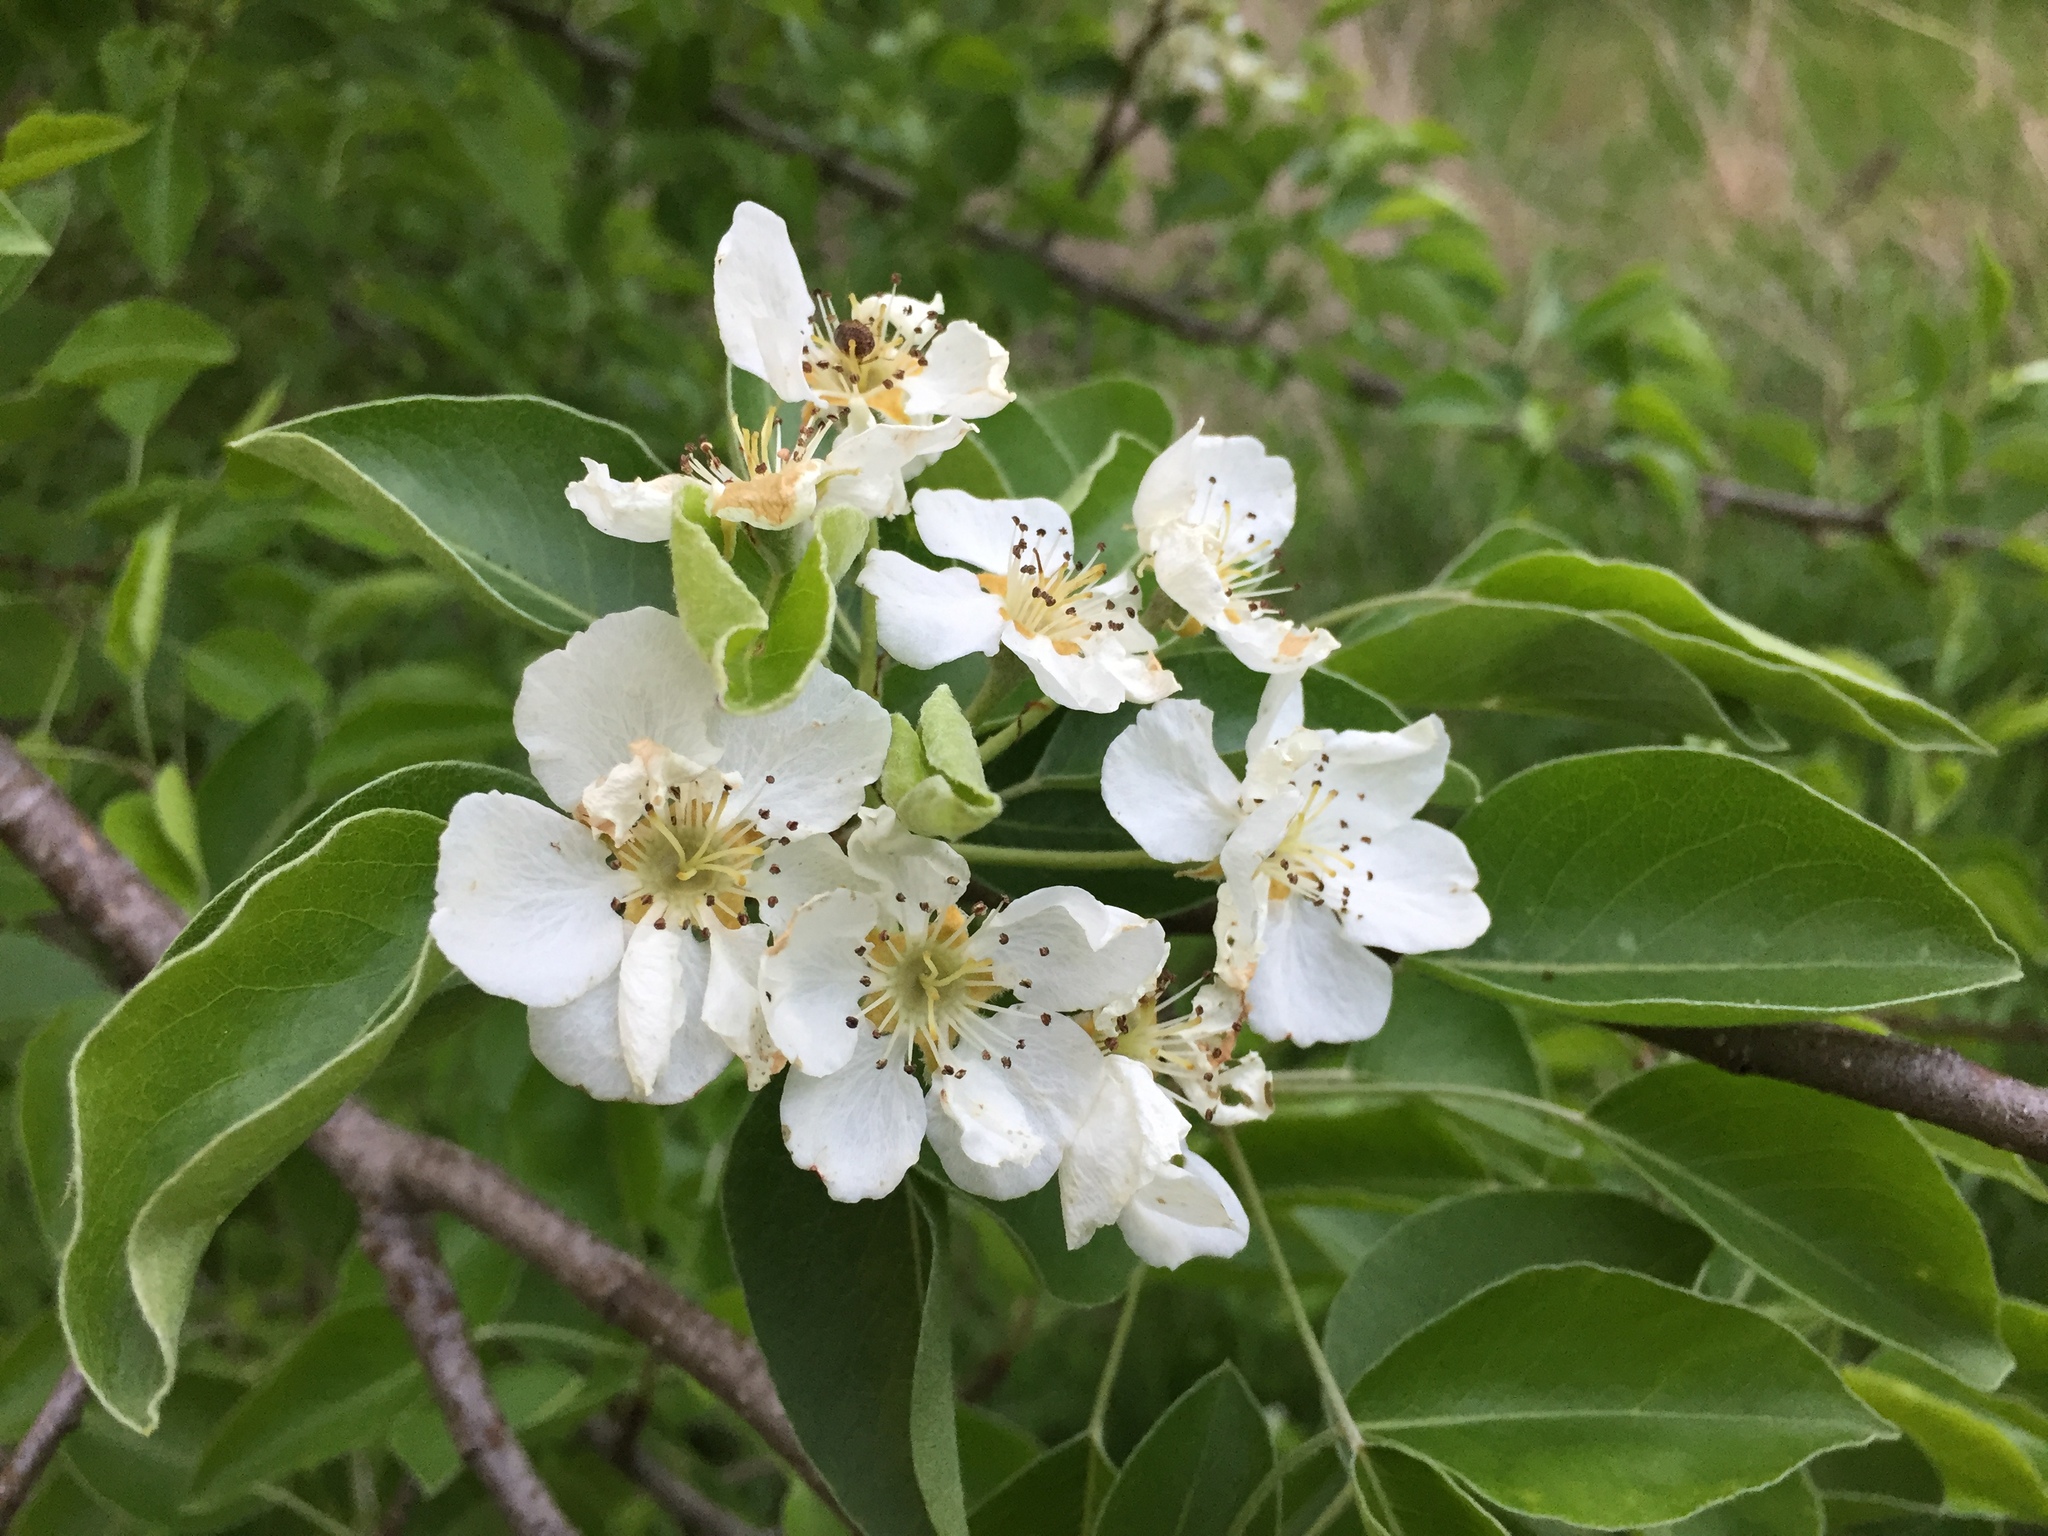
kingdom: Plantae
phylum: Tracheophyta
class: Magnoliopsida
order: Rosales
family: Rosaceae
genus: Pyrus
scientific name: Pyrus communis
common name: Pear
